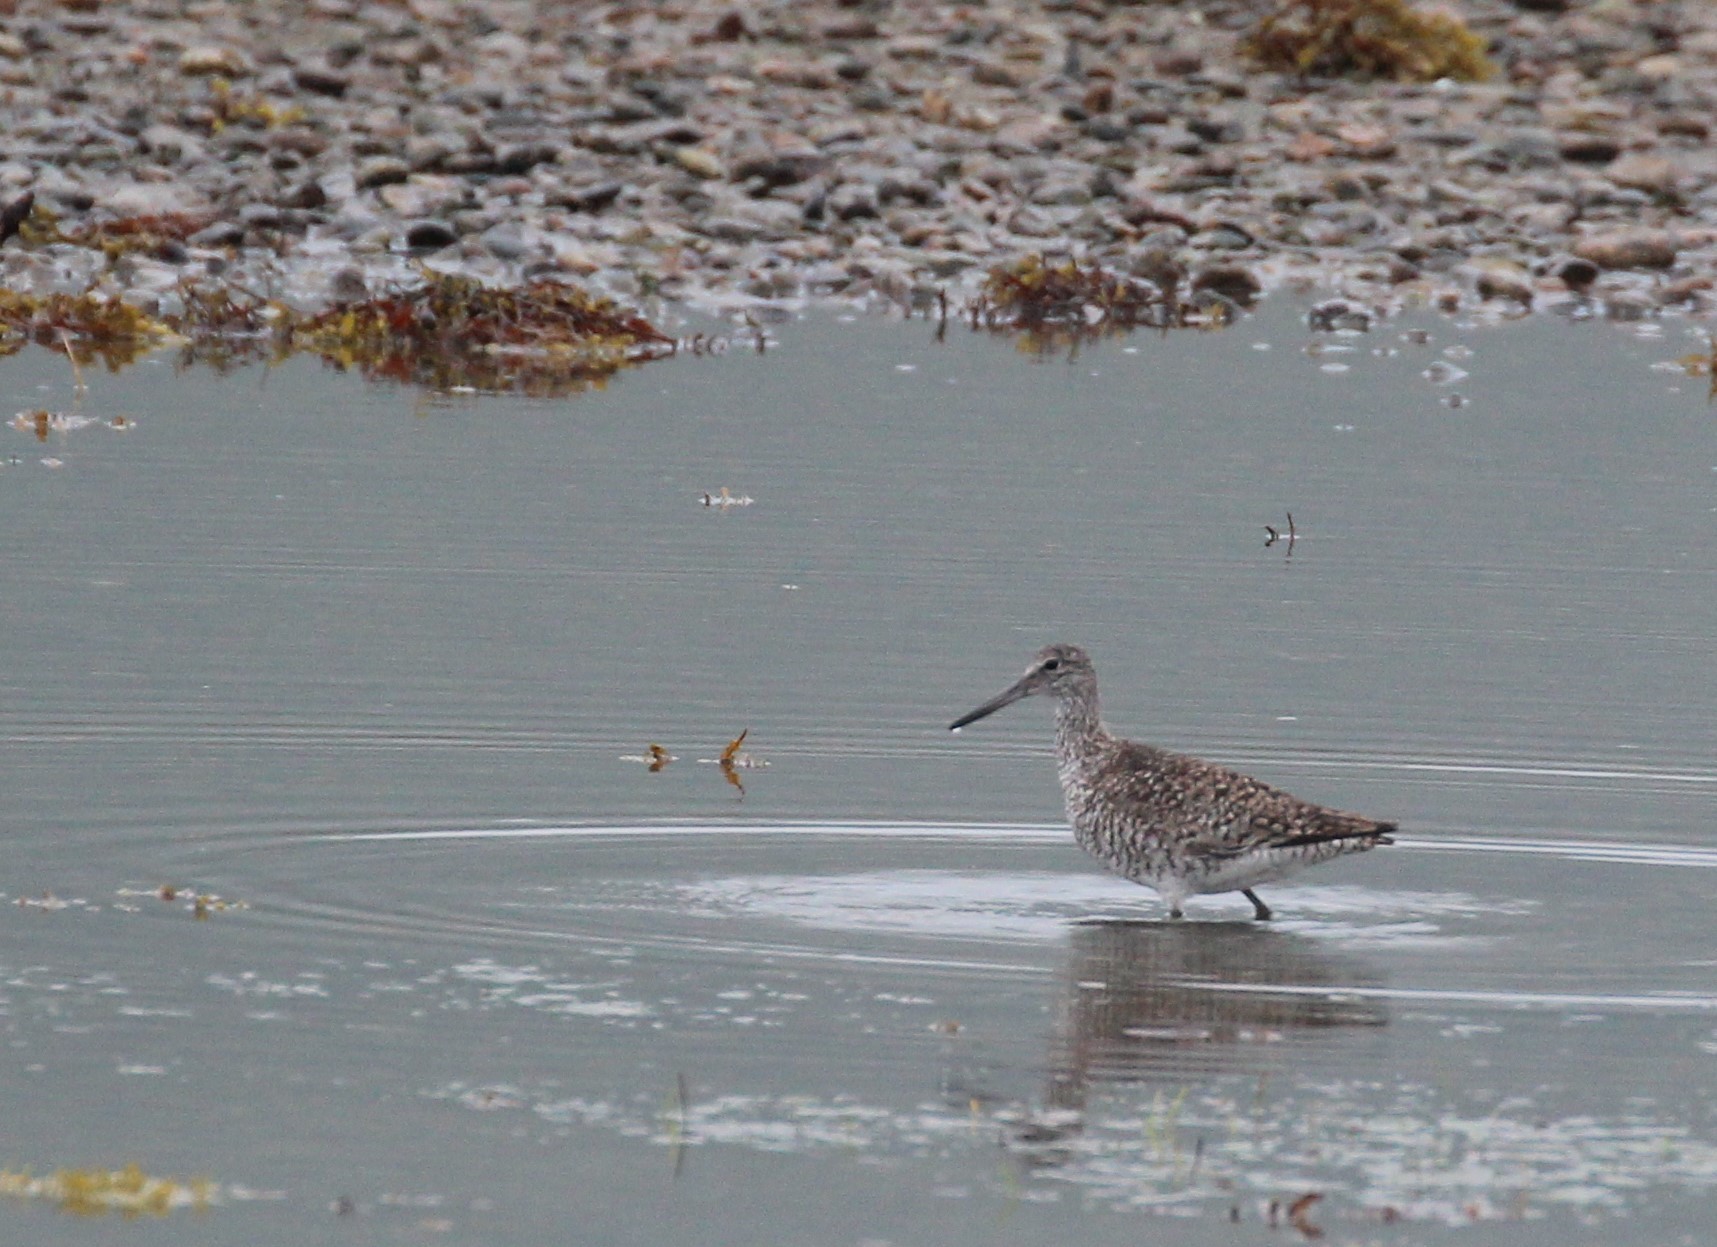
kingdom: Animalia
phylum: Chordata
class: Aves
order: Charadriiformes
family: Scolopacidae
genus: Tringa
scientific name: Tringa semipalmata
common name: Willet
